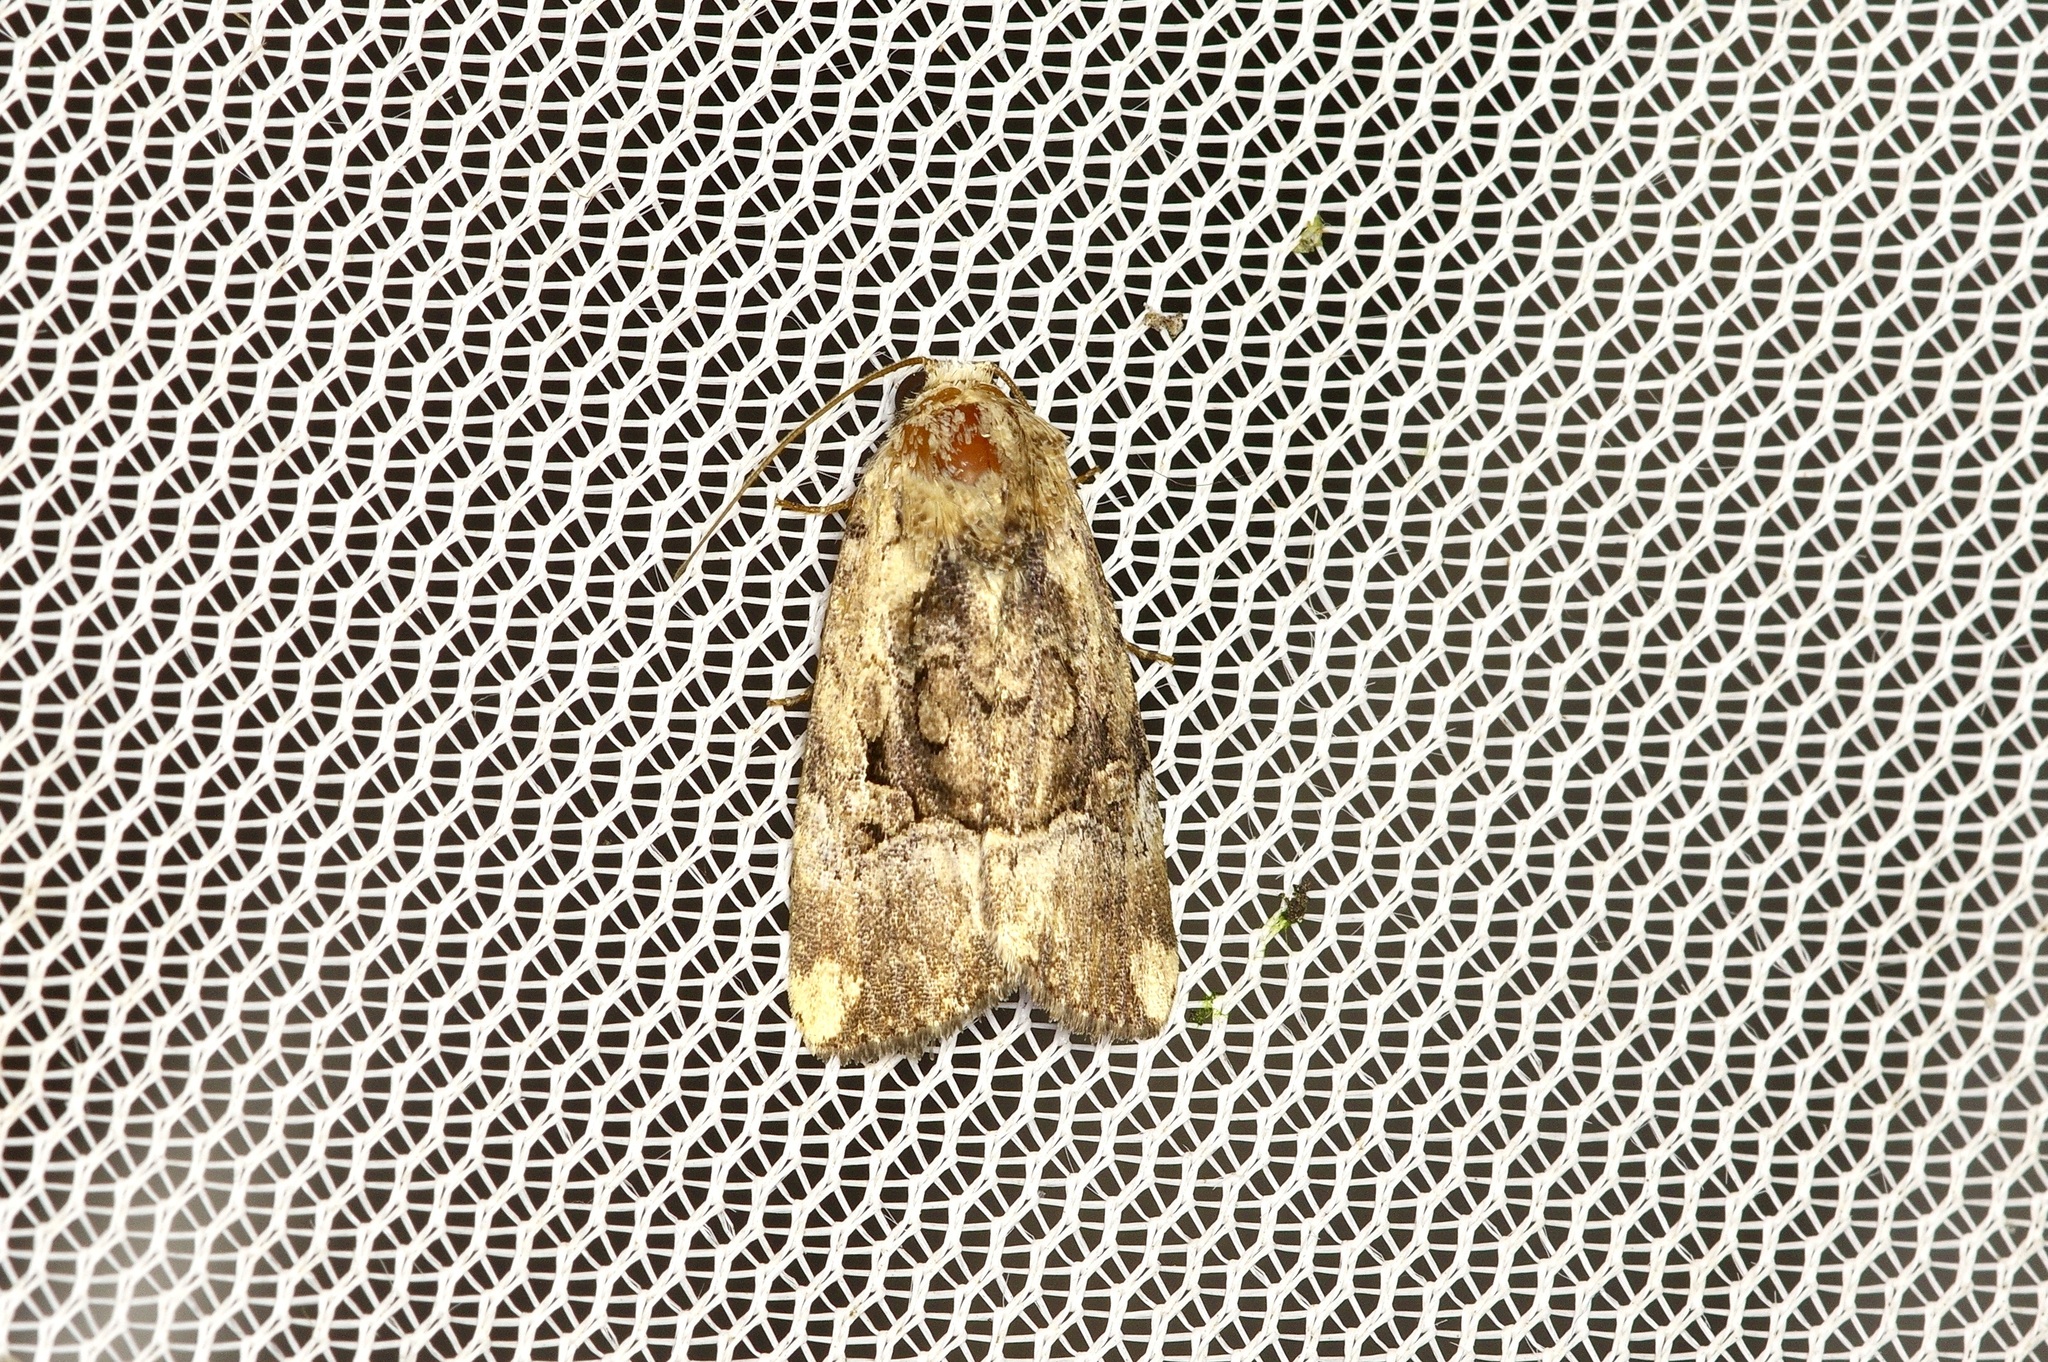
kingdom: Animalia
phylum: Arthropoda
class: Insecta
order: Lepidoptera
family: Noctuidae
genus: Elaphria
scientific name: Elaphria chalcedonia
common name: Chalcedony midget
